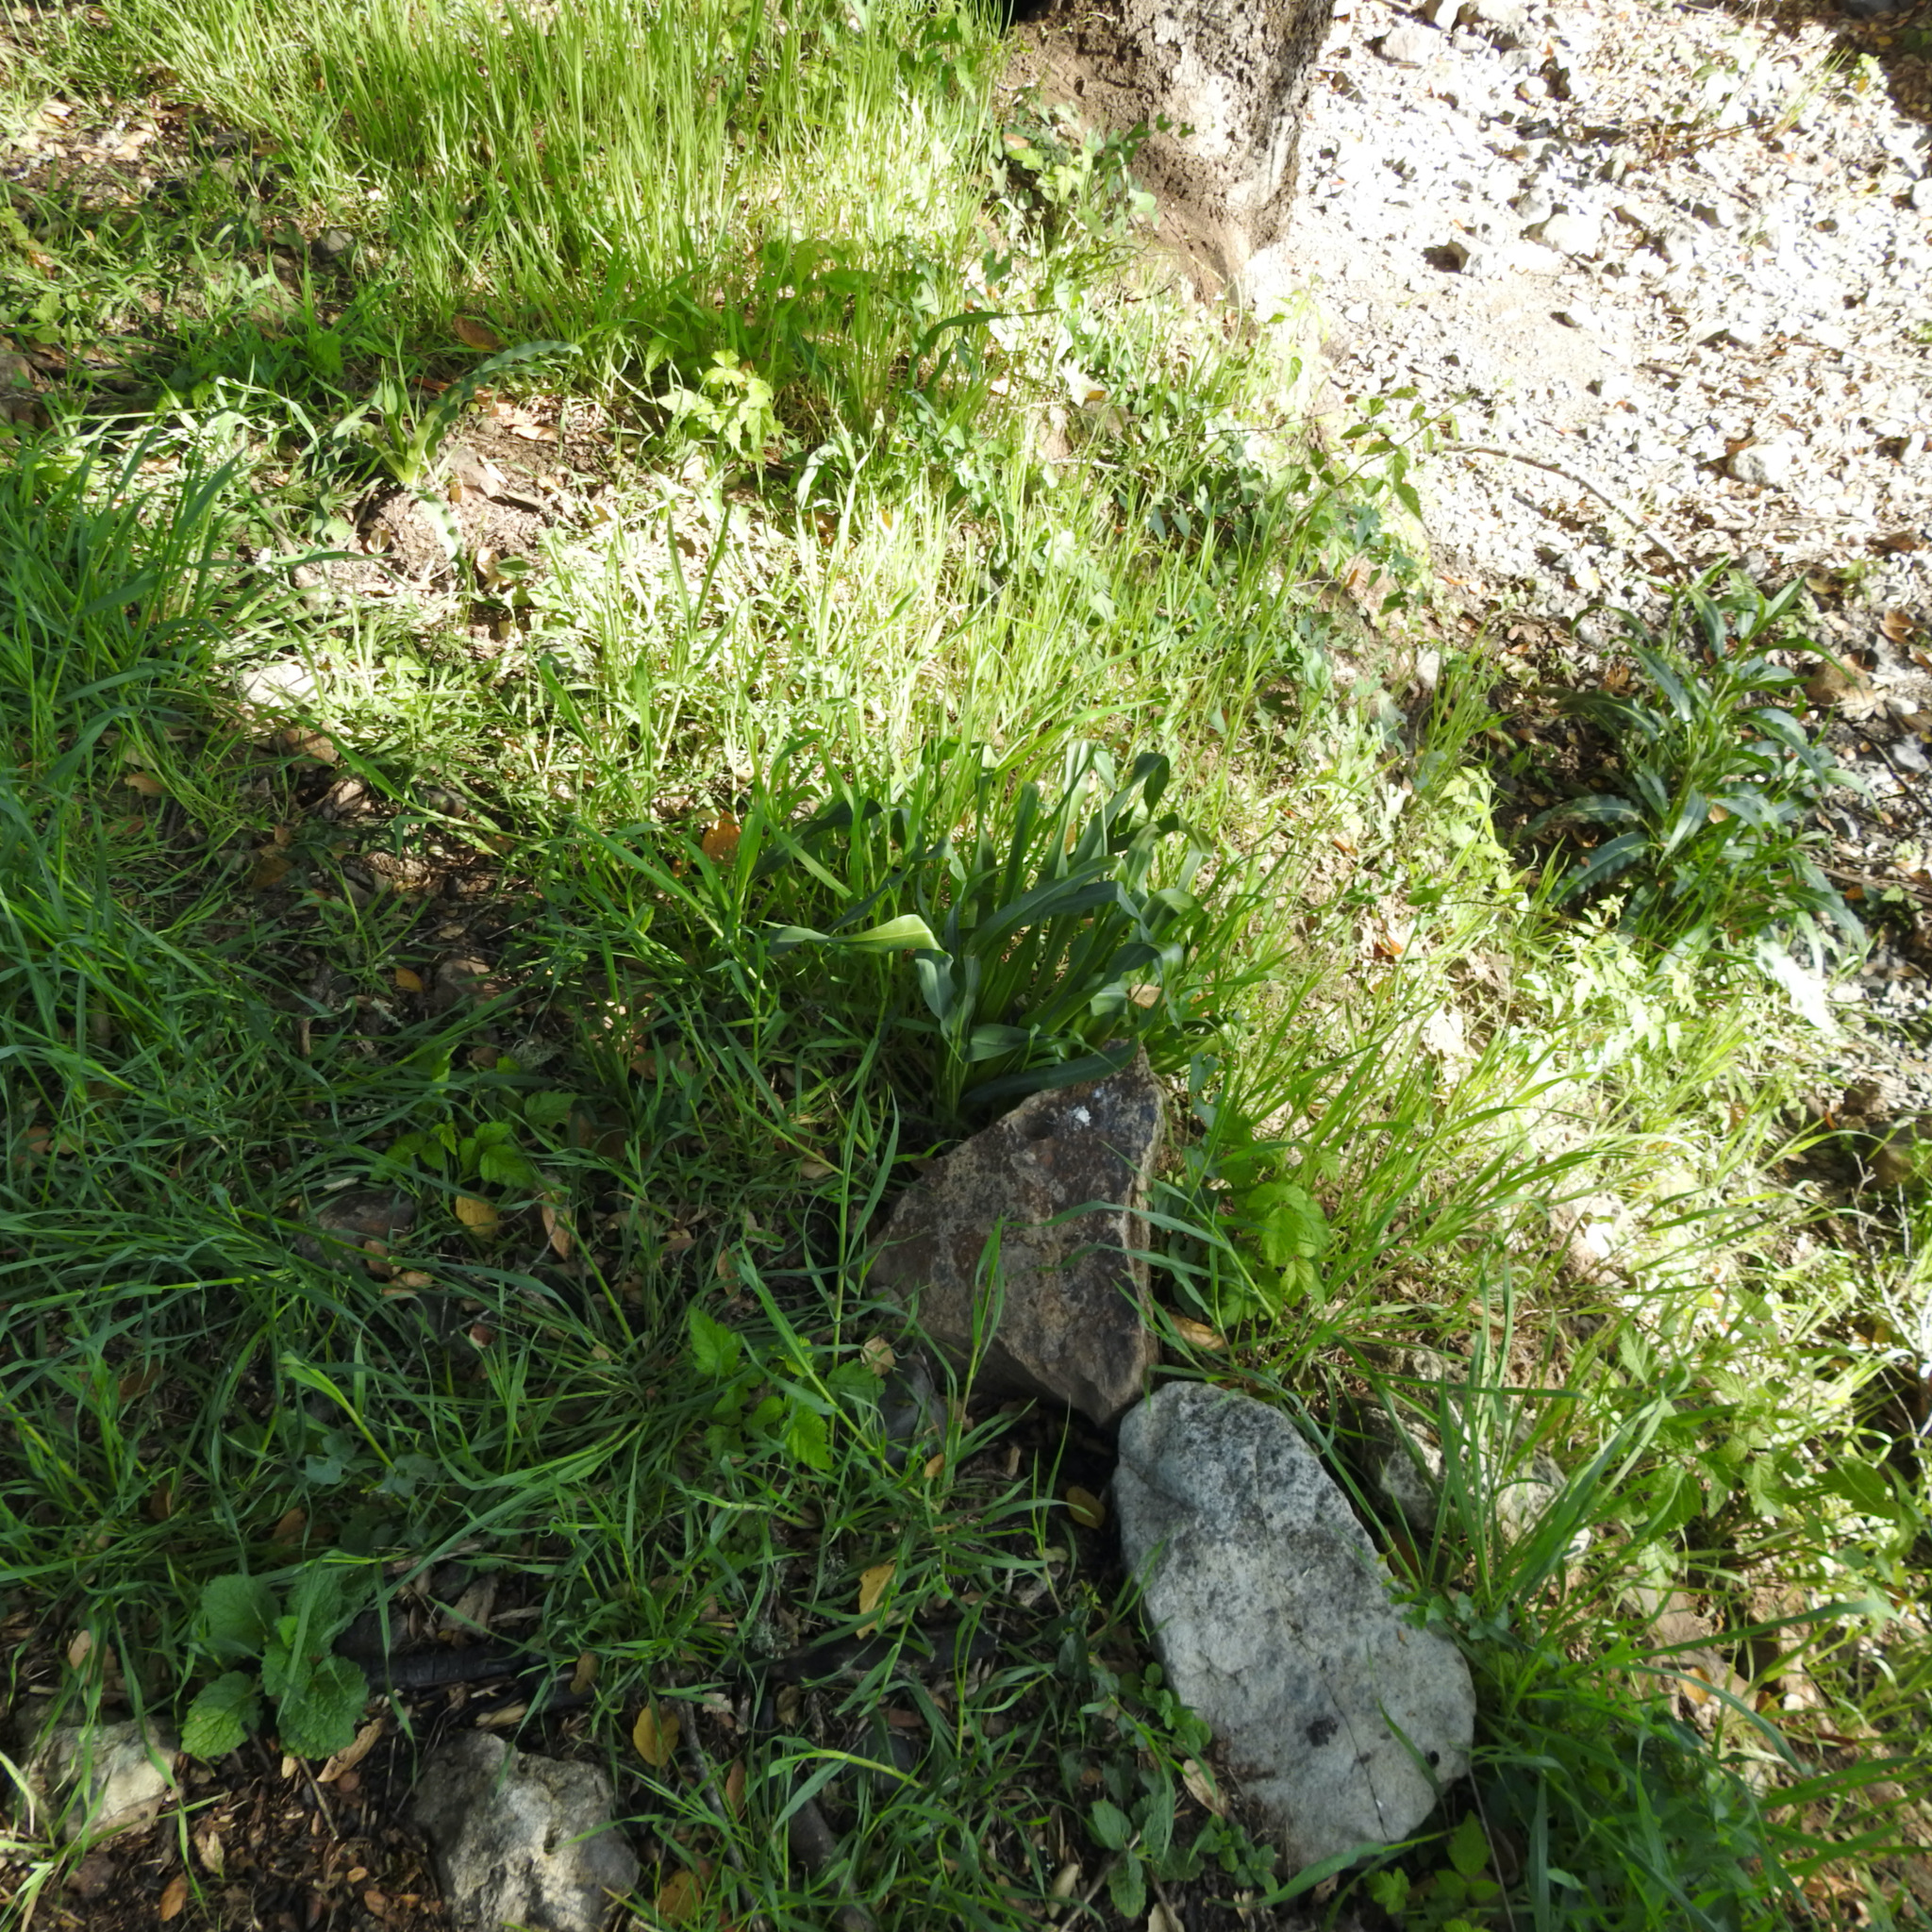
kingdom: Plantae
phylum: Tracheophyta
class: Liliopsida
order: Asparagales
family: Asparagaceae
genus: Chlorogalum
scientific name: Chlorogalum pomeridianum
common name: Amole
